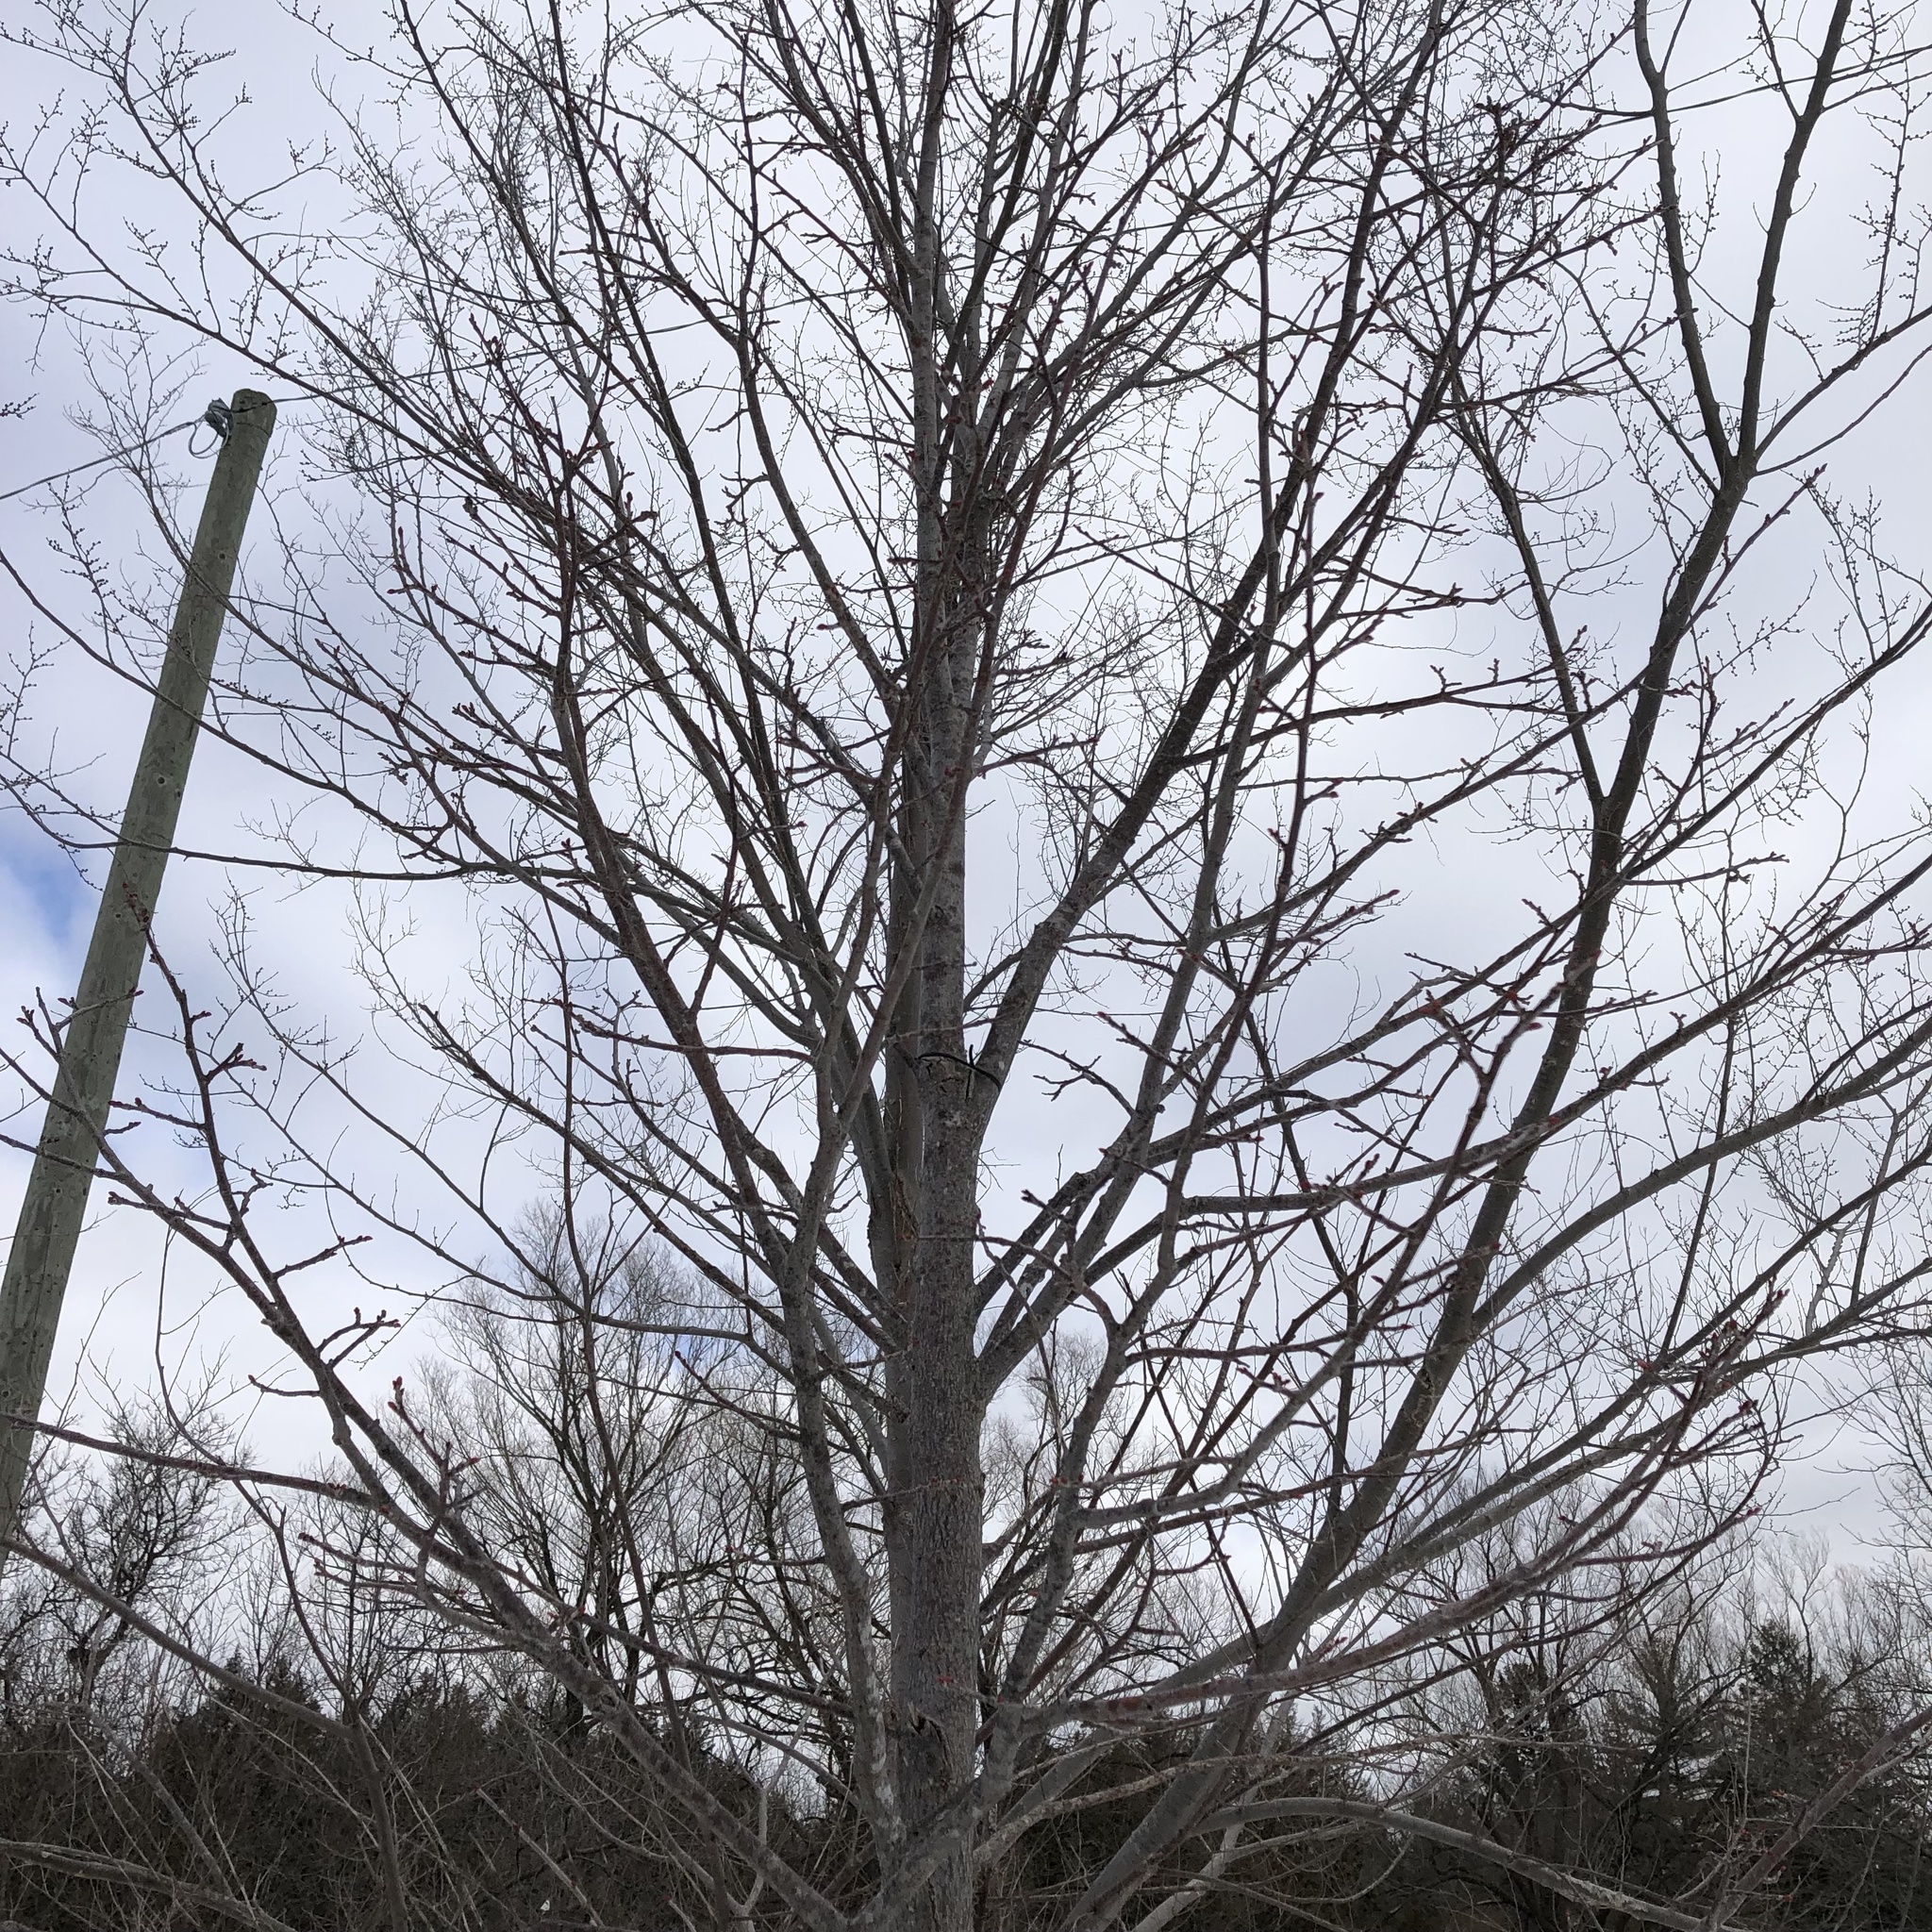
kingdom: Plantae
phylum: Tracheophyta
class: Magnoliopsida
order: Malvales
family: Malvaceae
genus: Tilia
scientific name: Tilia americana
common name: Basswood
